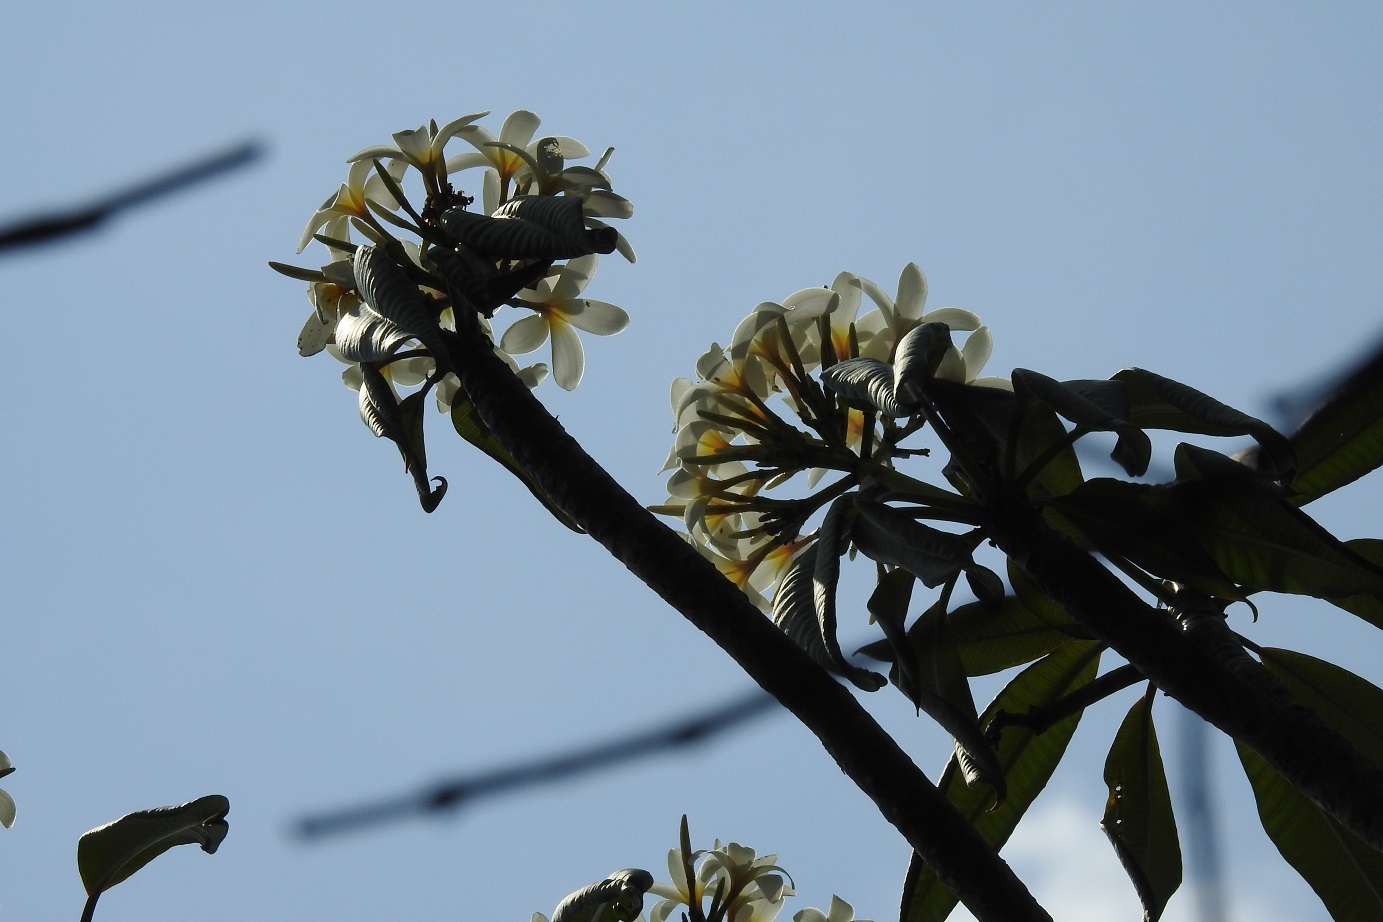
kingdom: Plantae
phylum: Tracheophyta
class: Magnoliopsida
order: Gentianales
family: Apocynaceae
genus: Plumeria
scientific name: Plumeria rubra
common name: Pagoda-tree
